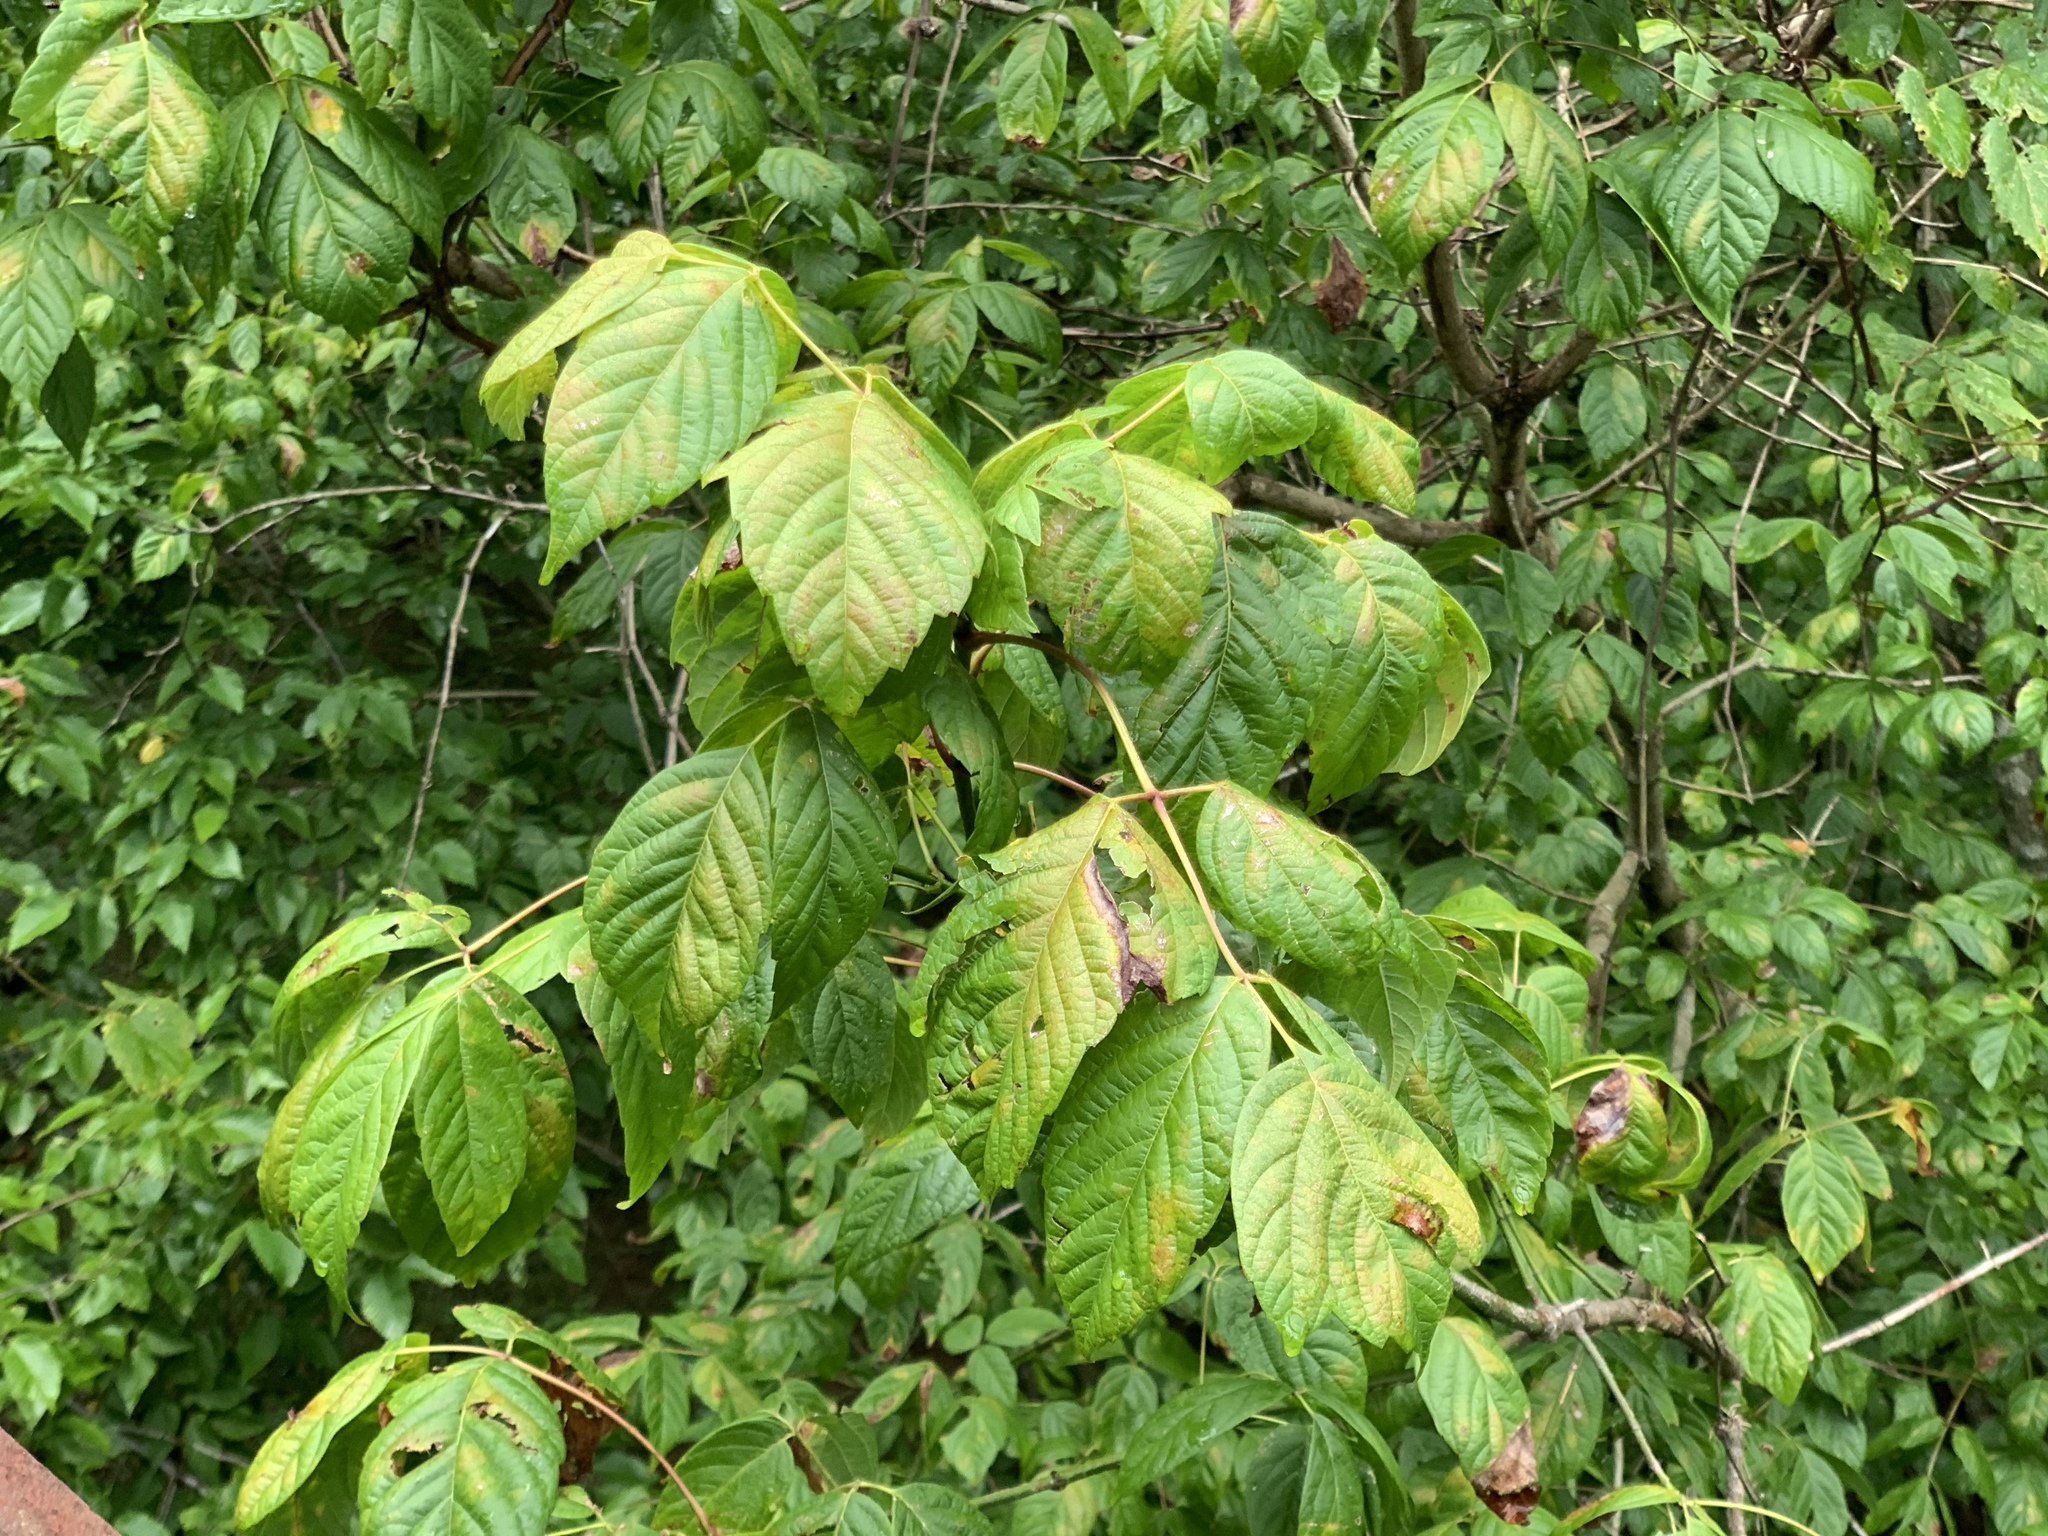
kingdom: Plantae
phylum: Tracheophyta
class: Magnoliopsida
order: Sapindales
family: Sapindaceae
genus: Acer
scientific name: Acer negundo
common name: Ashleaf maple
